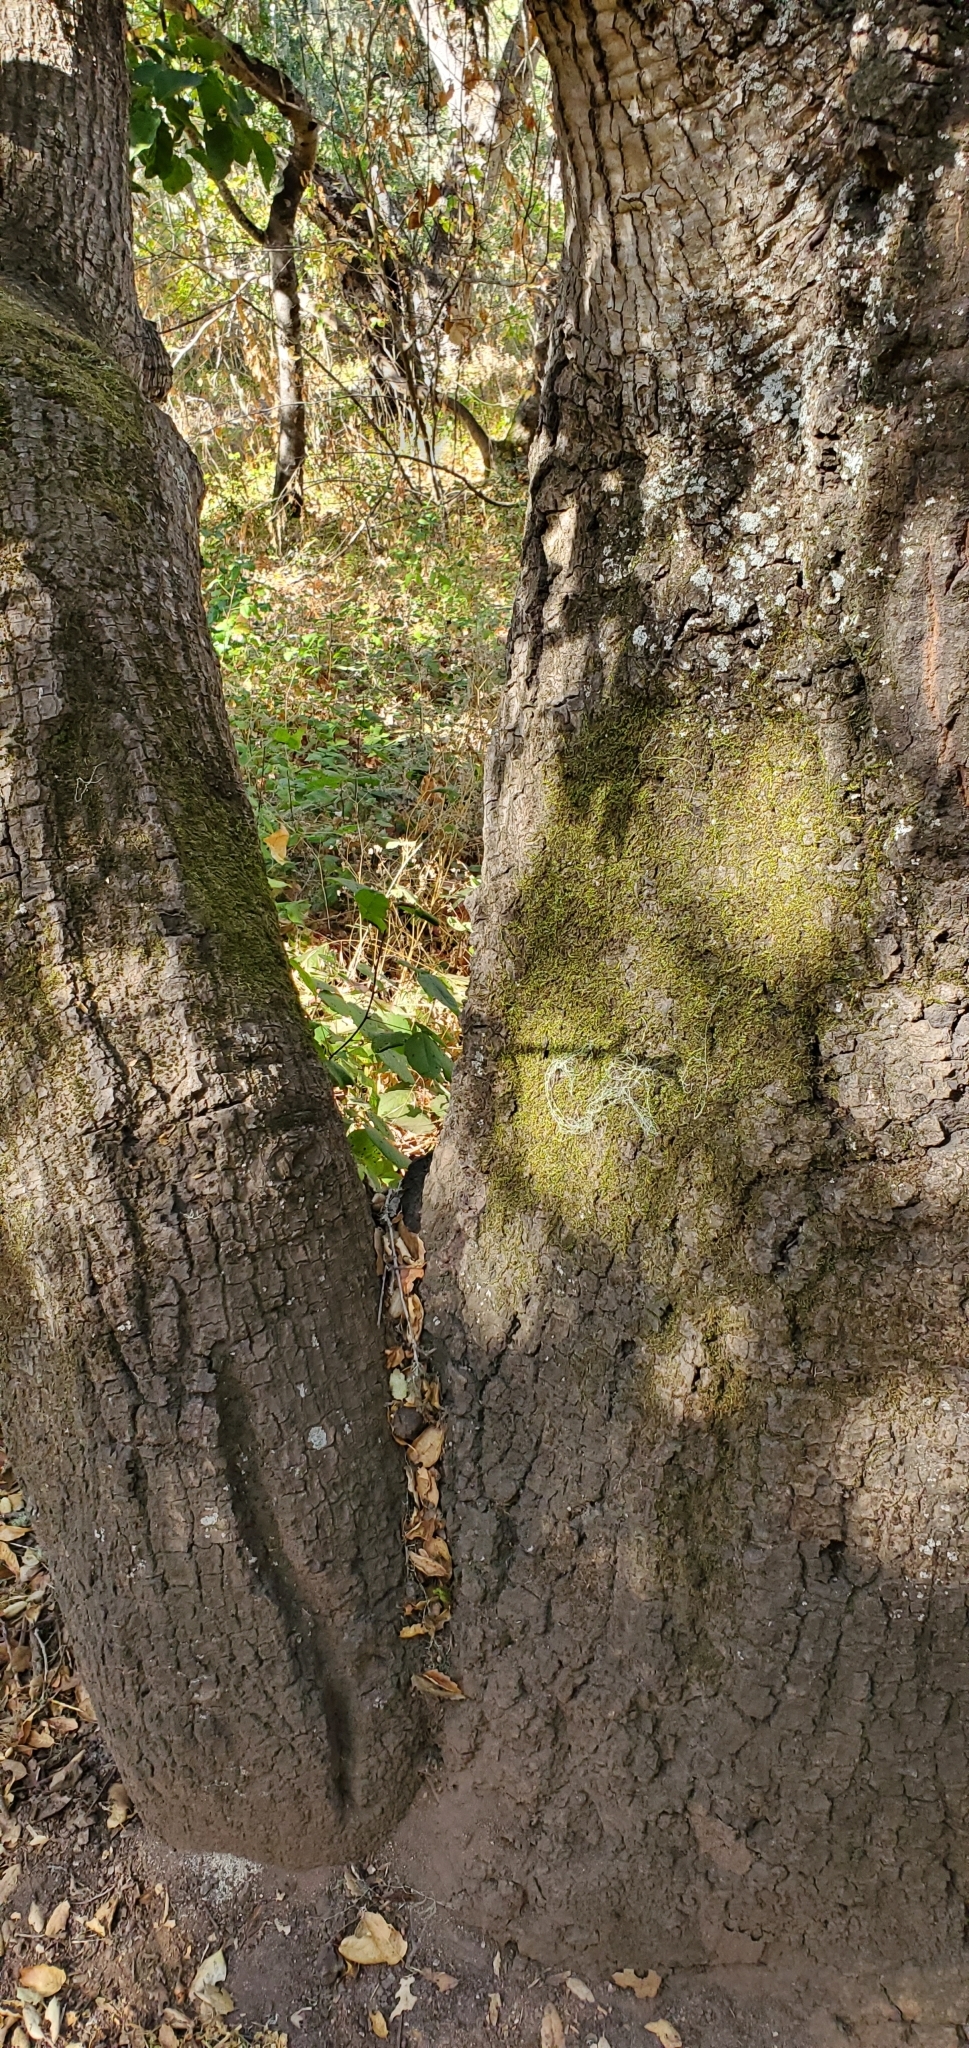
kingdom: Plantae
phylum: Tracheophyta
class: Magnoliopsida
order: Fagales
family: Fagaceae
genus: Quercus
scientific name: Quercus agrifolia
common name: California live oak
